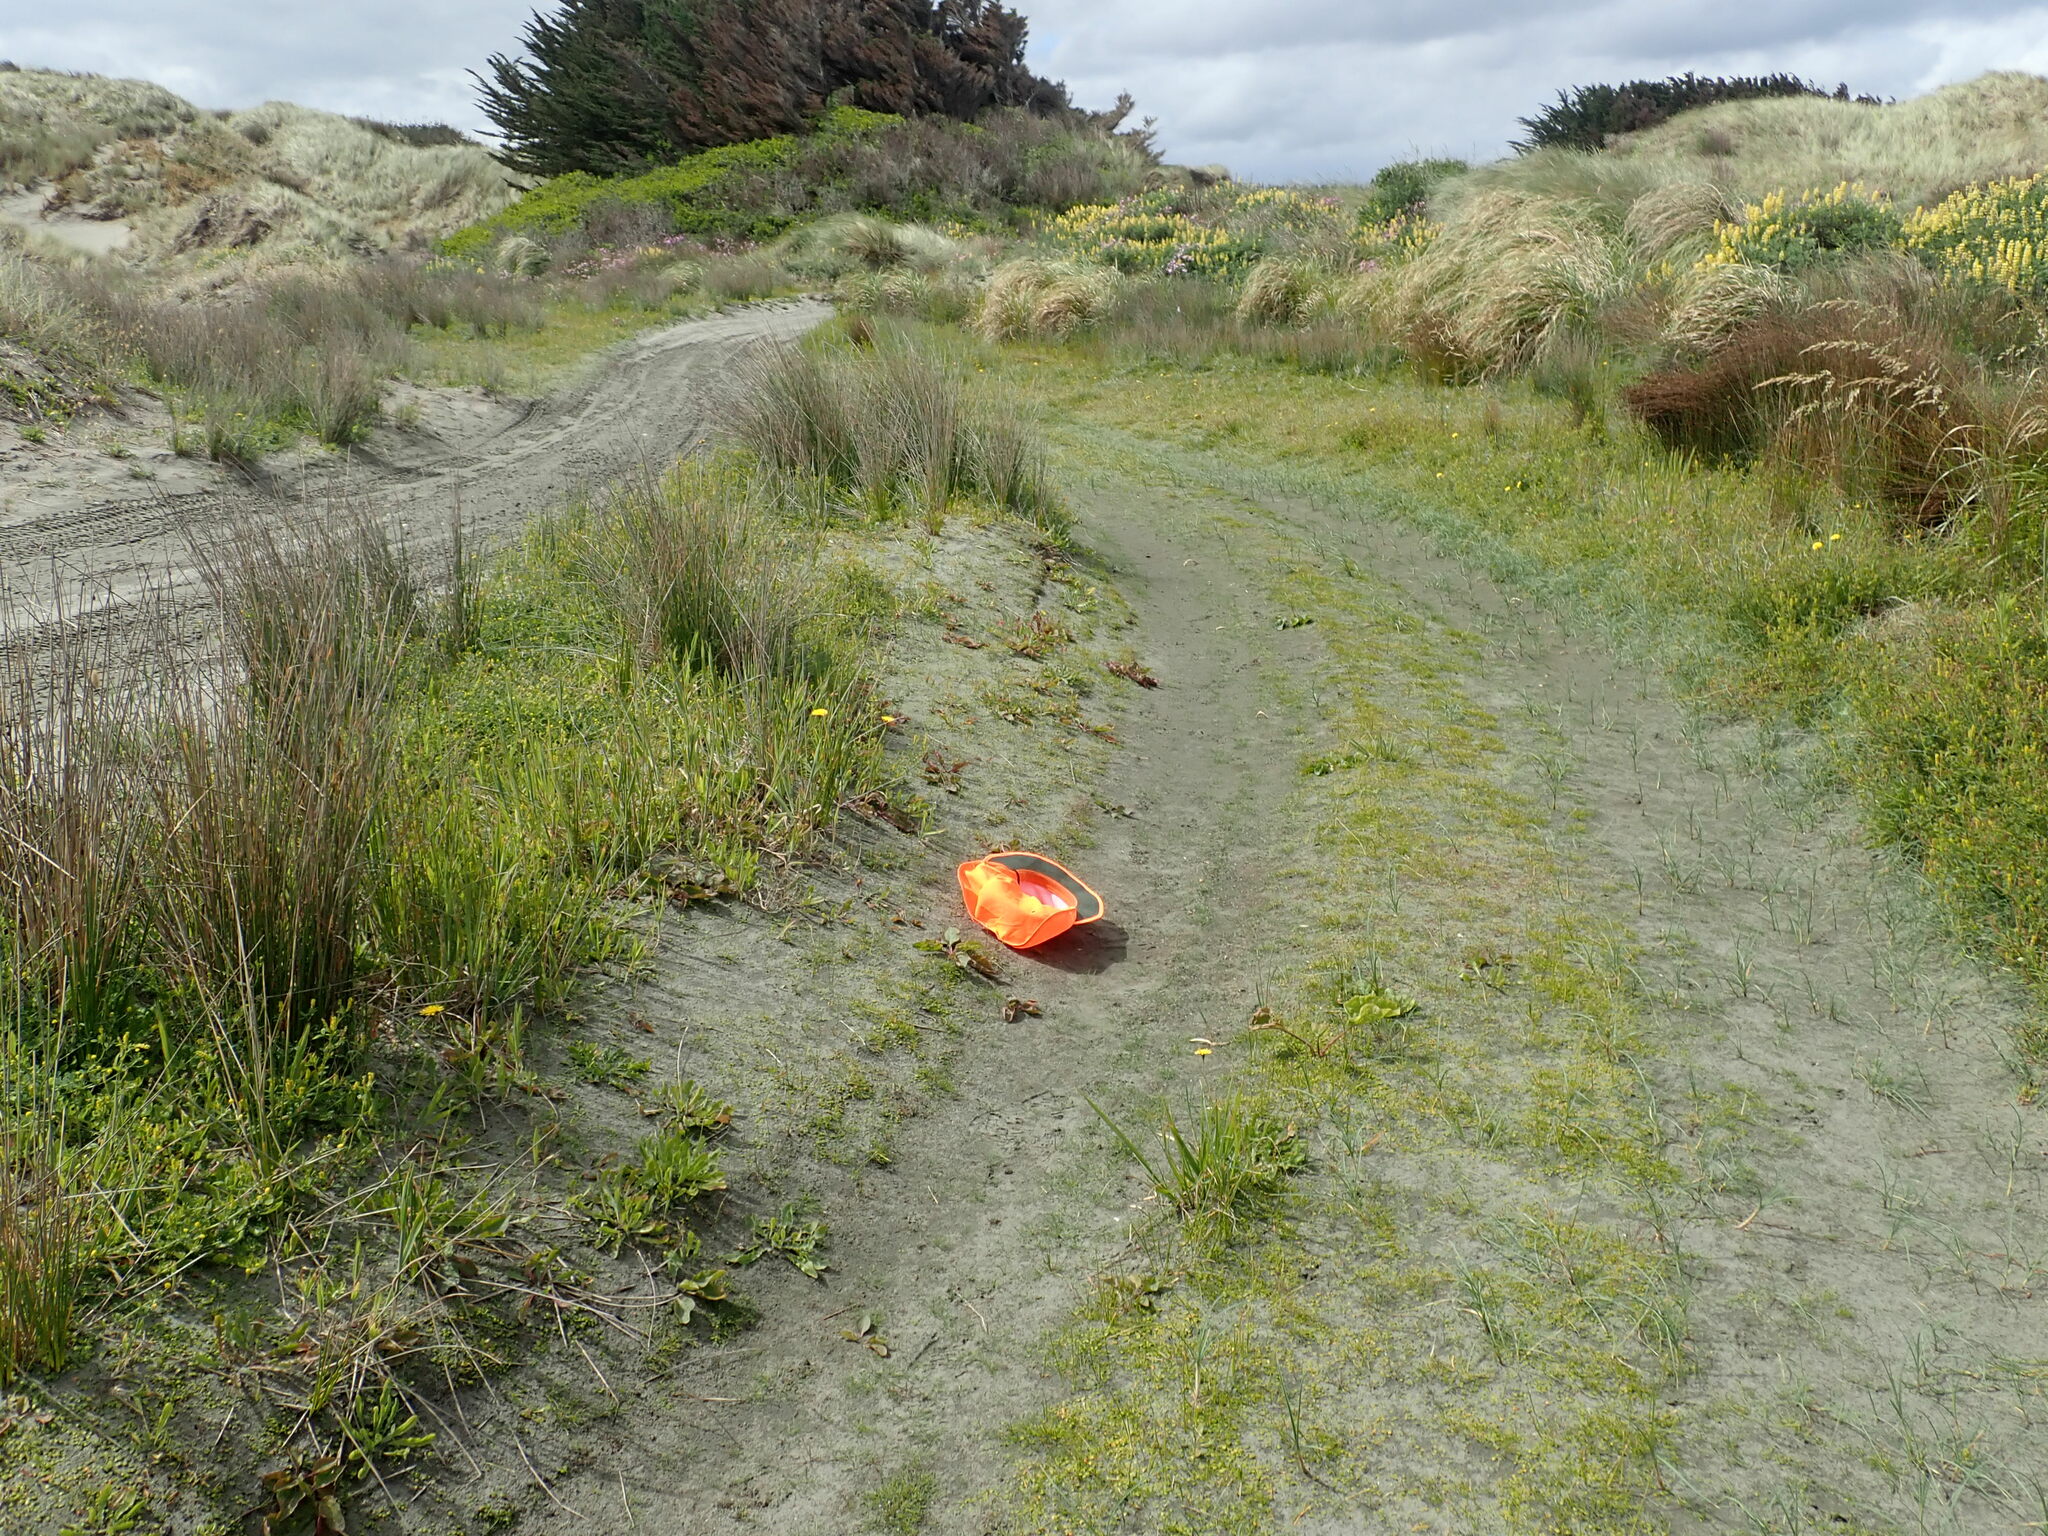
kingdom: Plantae
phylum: Tracheophyta
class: Magnoliopsida
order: Lamiales
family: Scrophulariaceae
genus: Limosella
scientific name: Limosella australis
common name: Welsh mudwort
